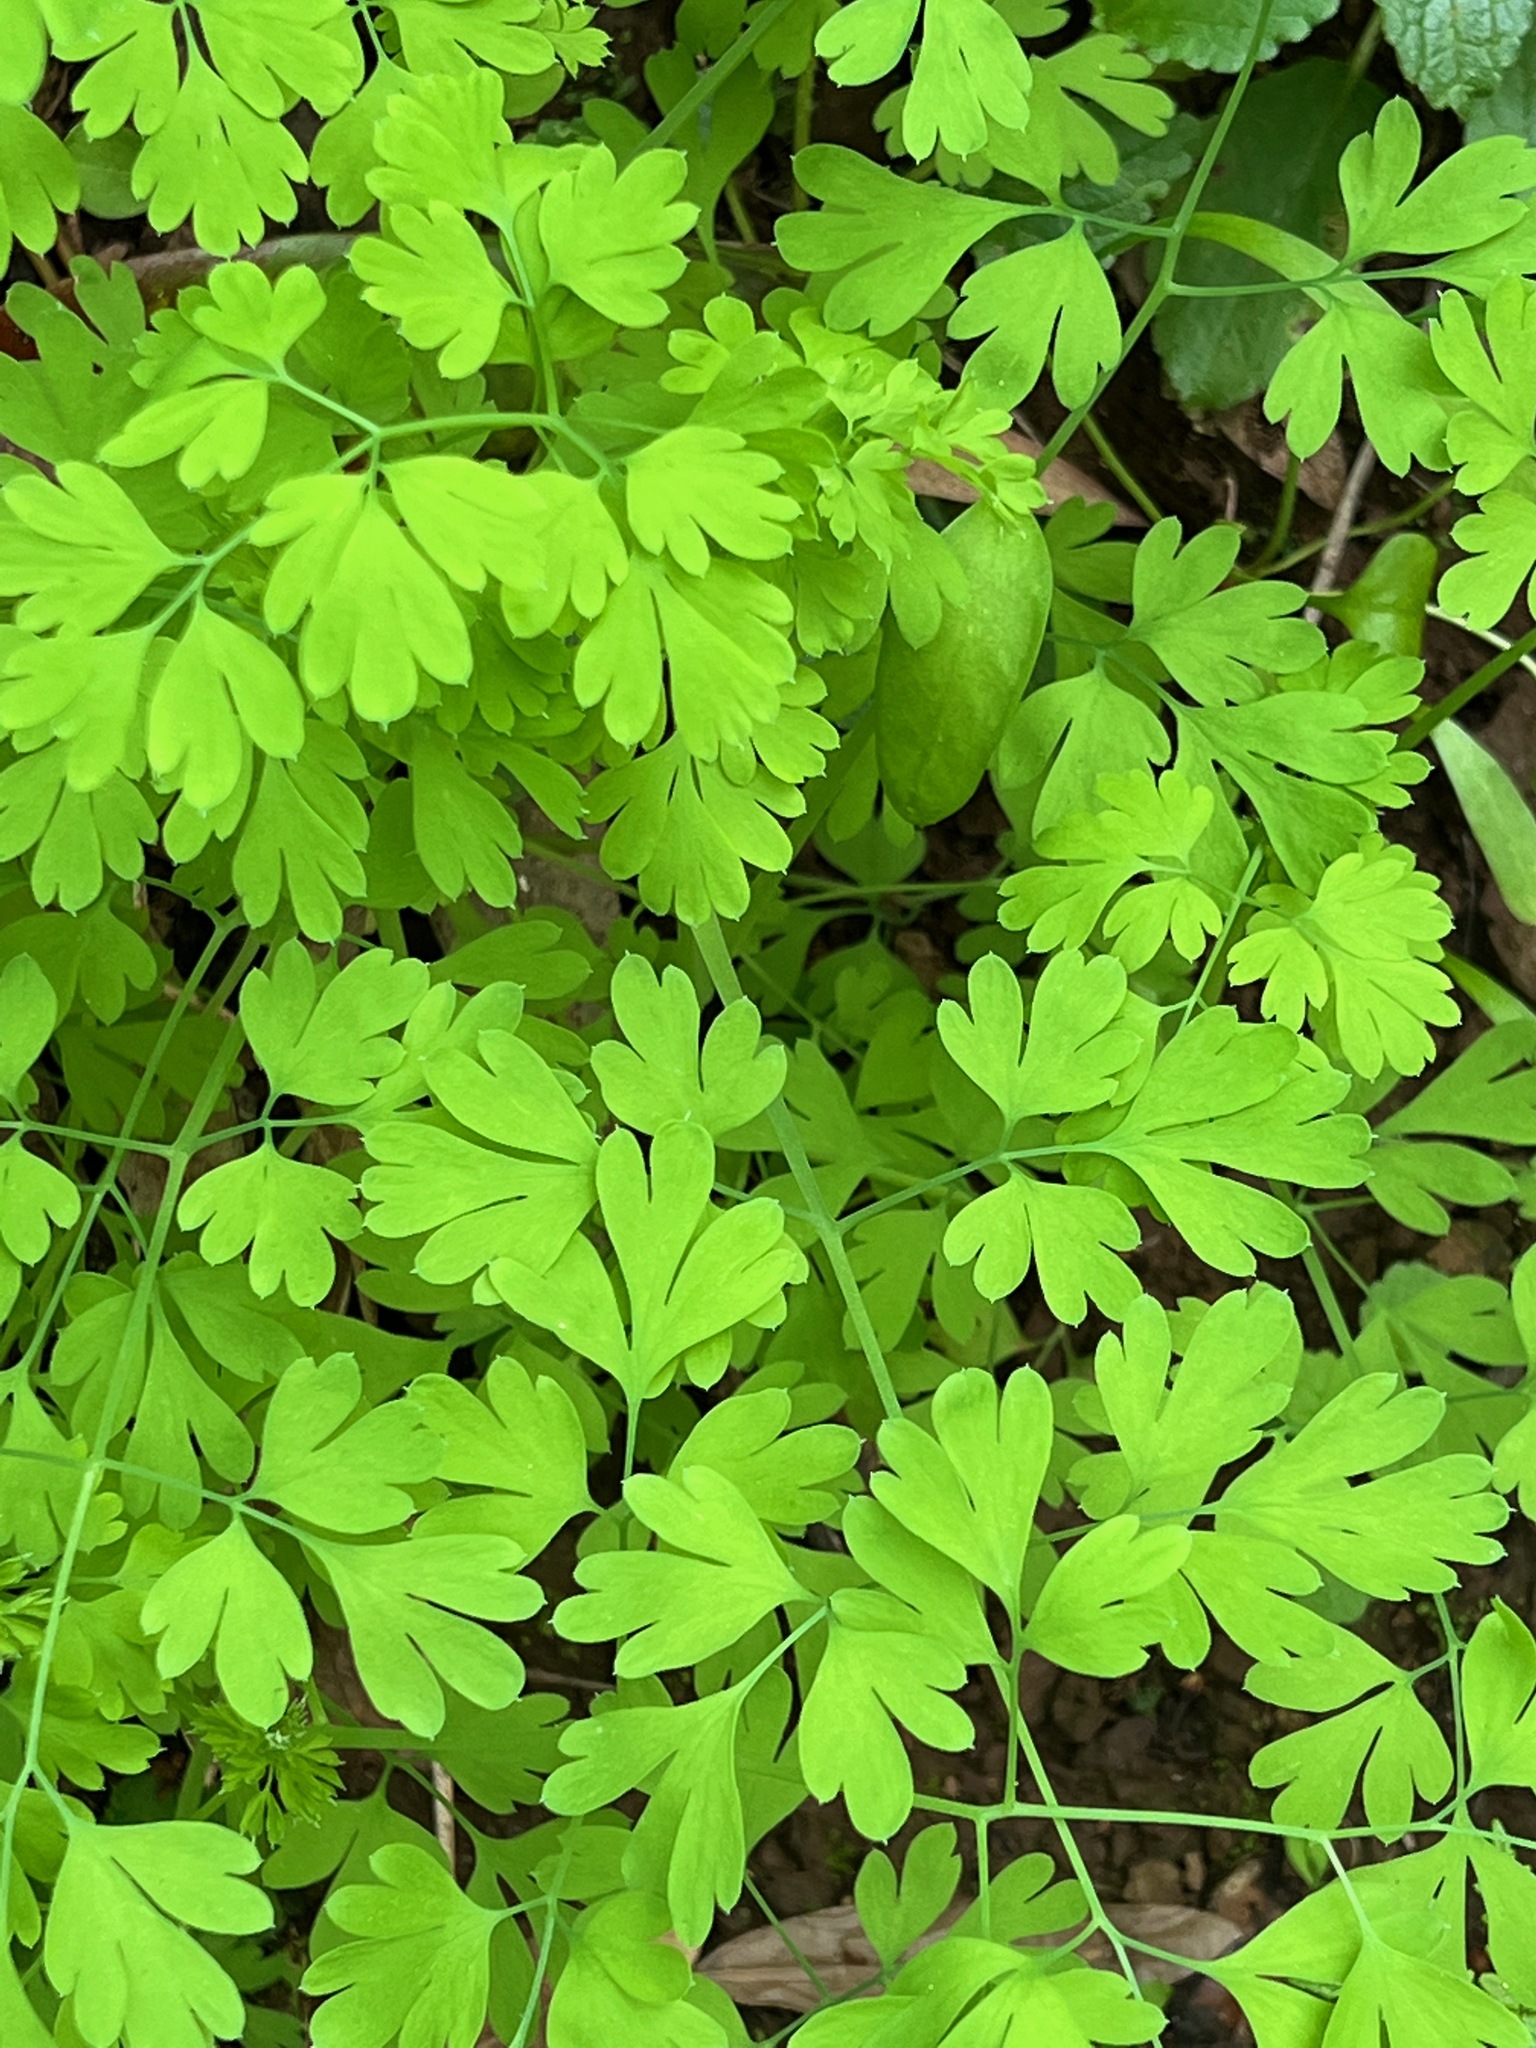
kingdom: Plantae
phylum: Tracheophyta
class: Magnoliopsida
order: Ranunculales
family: Papaveraceae
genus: Fumaria
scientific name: Fumaria
